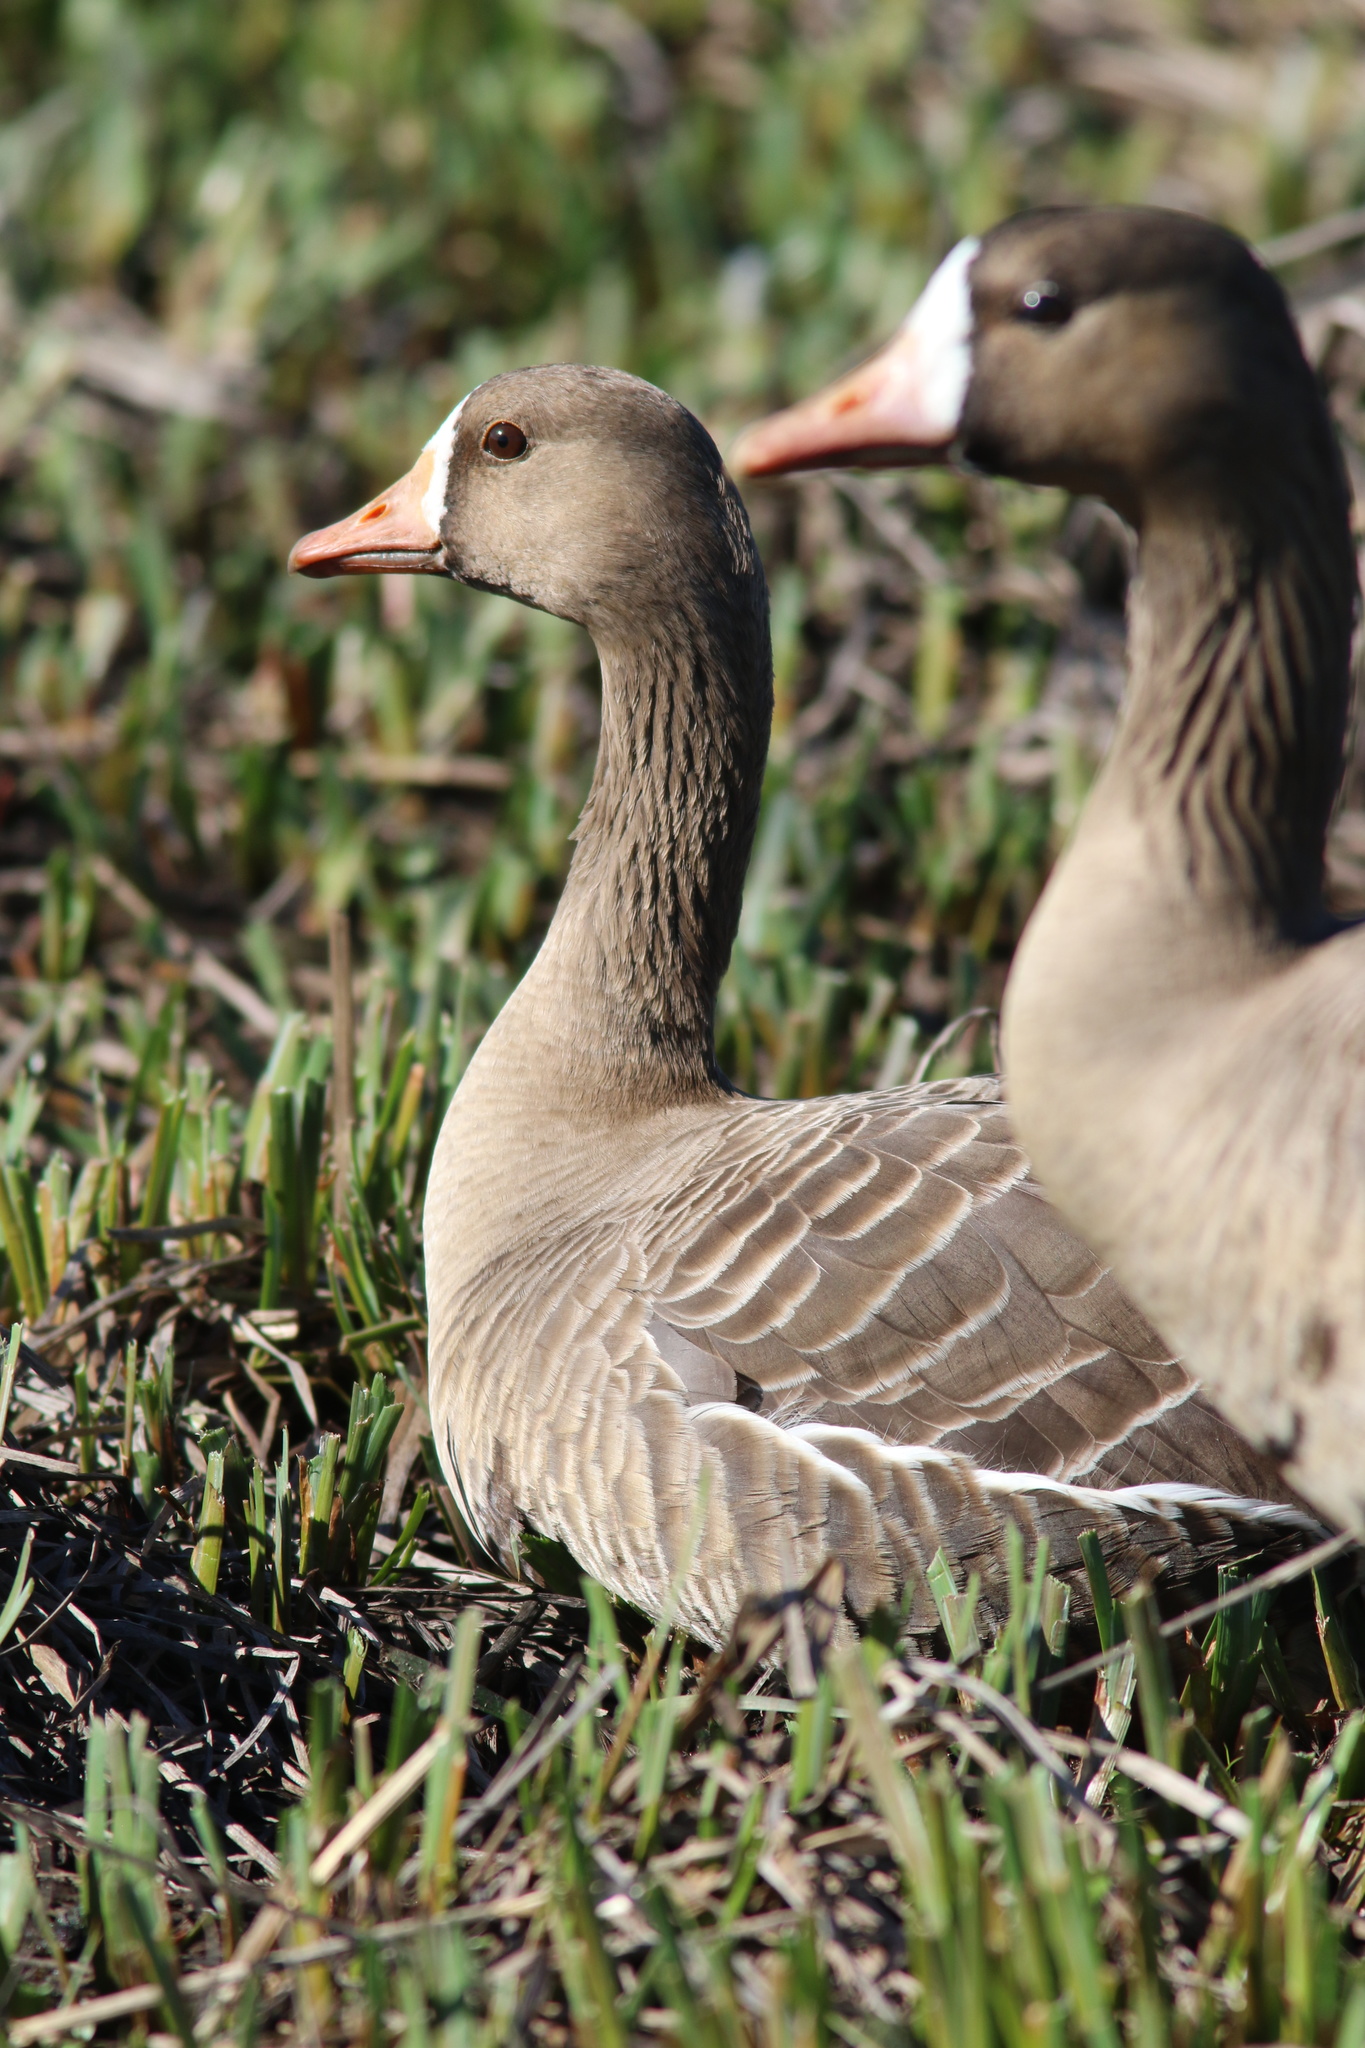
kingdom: Animalia
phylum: Chordata
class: Aves
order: Anseriformes
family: Anatidae
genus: Anser
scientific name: Anser albifrons
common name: Greater white-fronted goose
